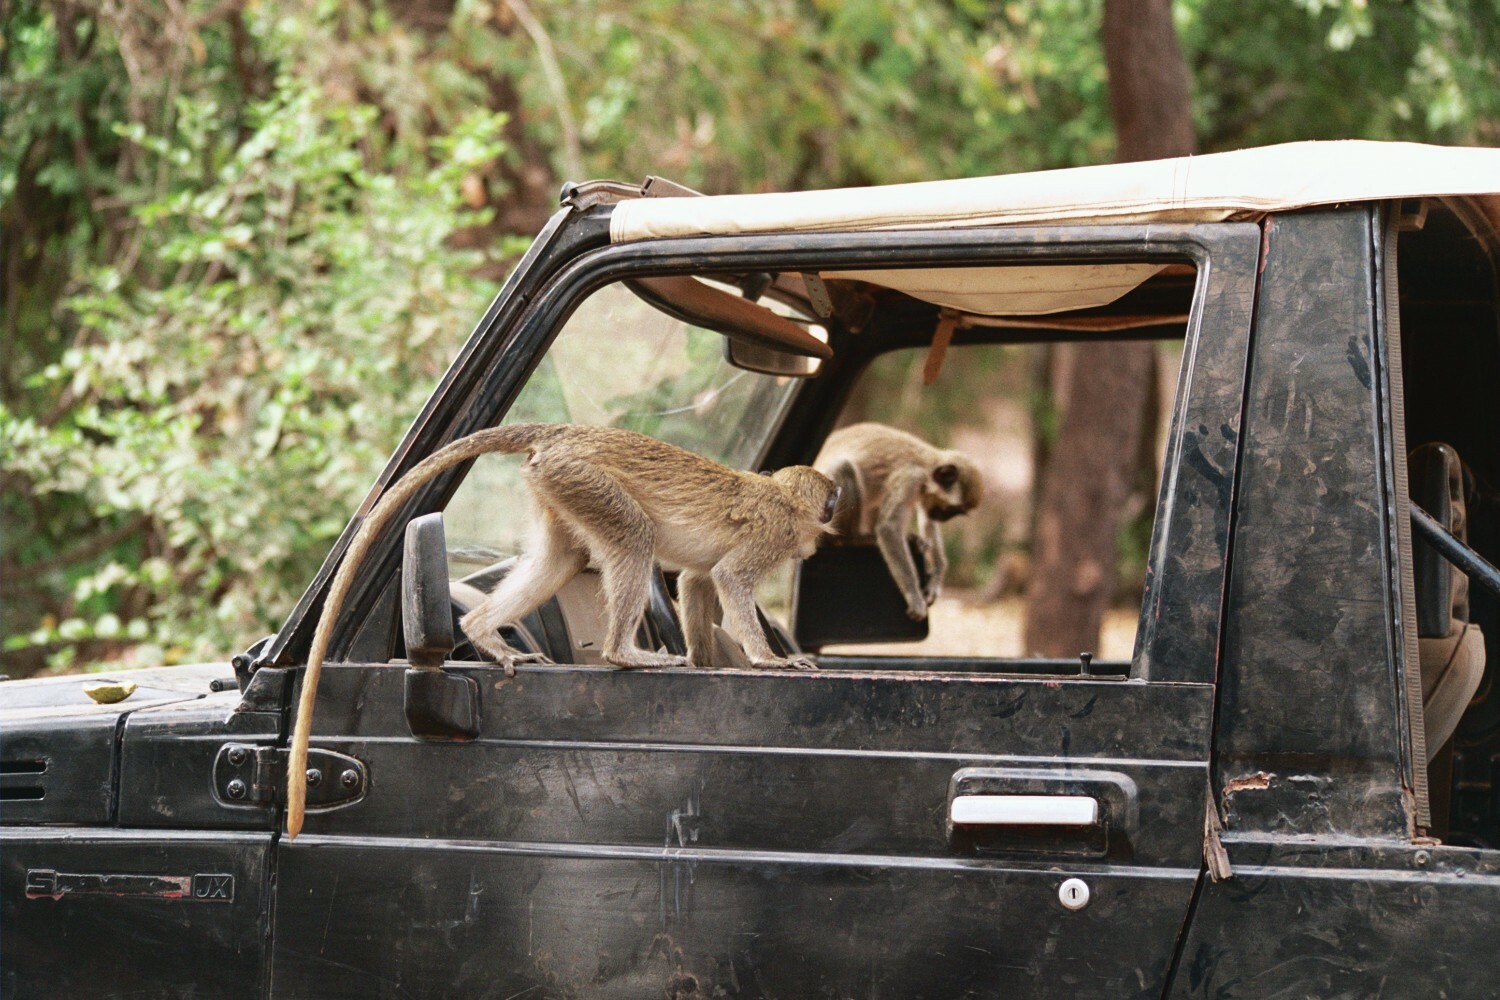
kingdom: Animalia
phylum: Chordata
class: Mammalia
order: Primates
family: Cercopithecidae
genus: Chlorocebus
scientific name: Chlorocebus sabaeus
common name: Green monkey
